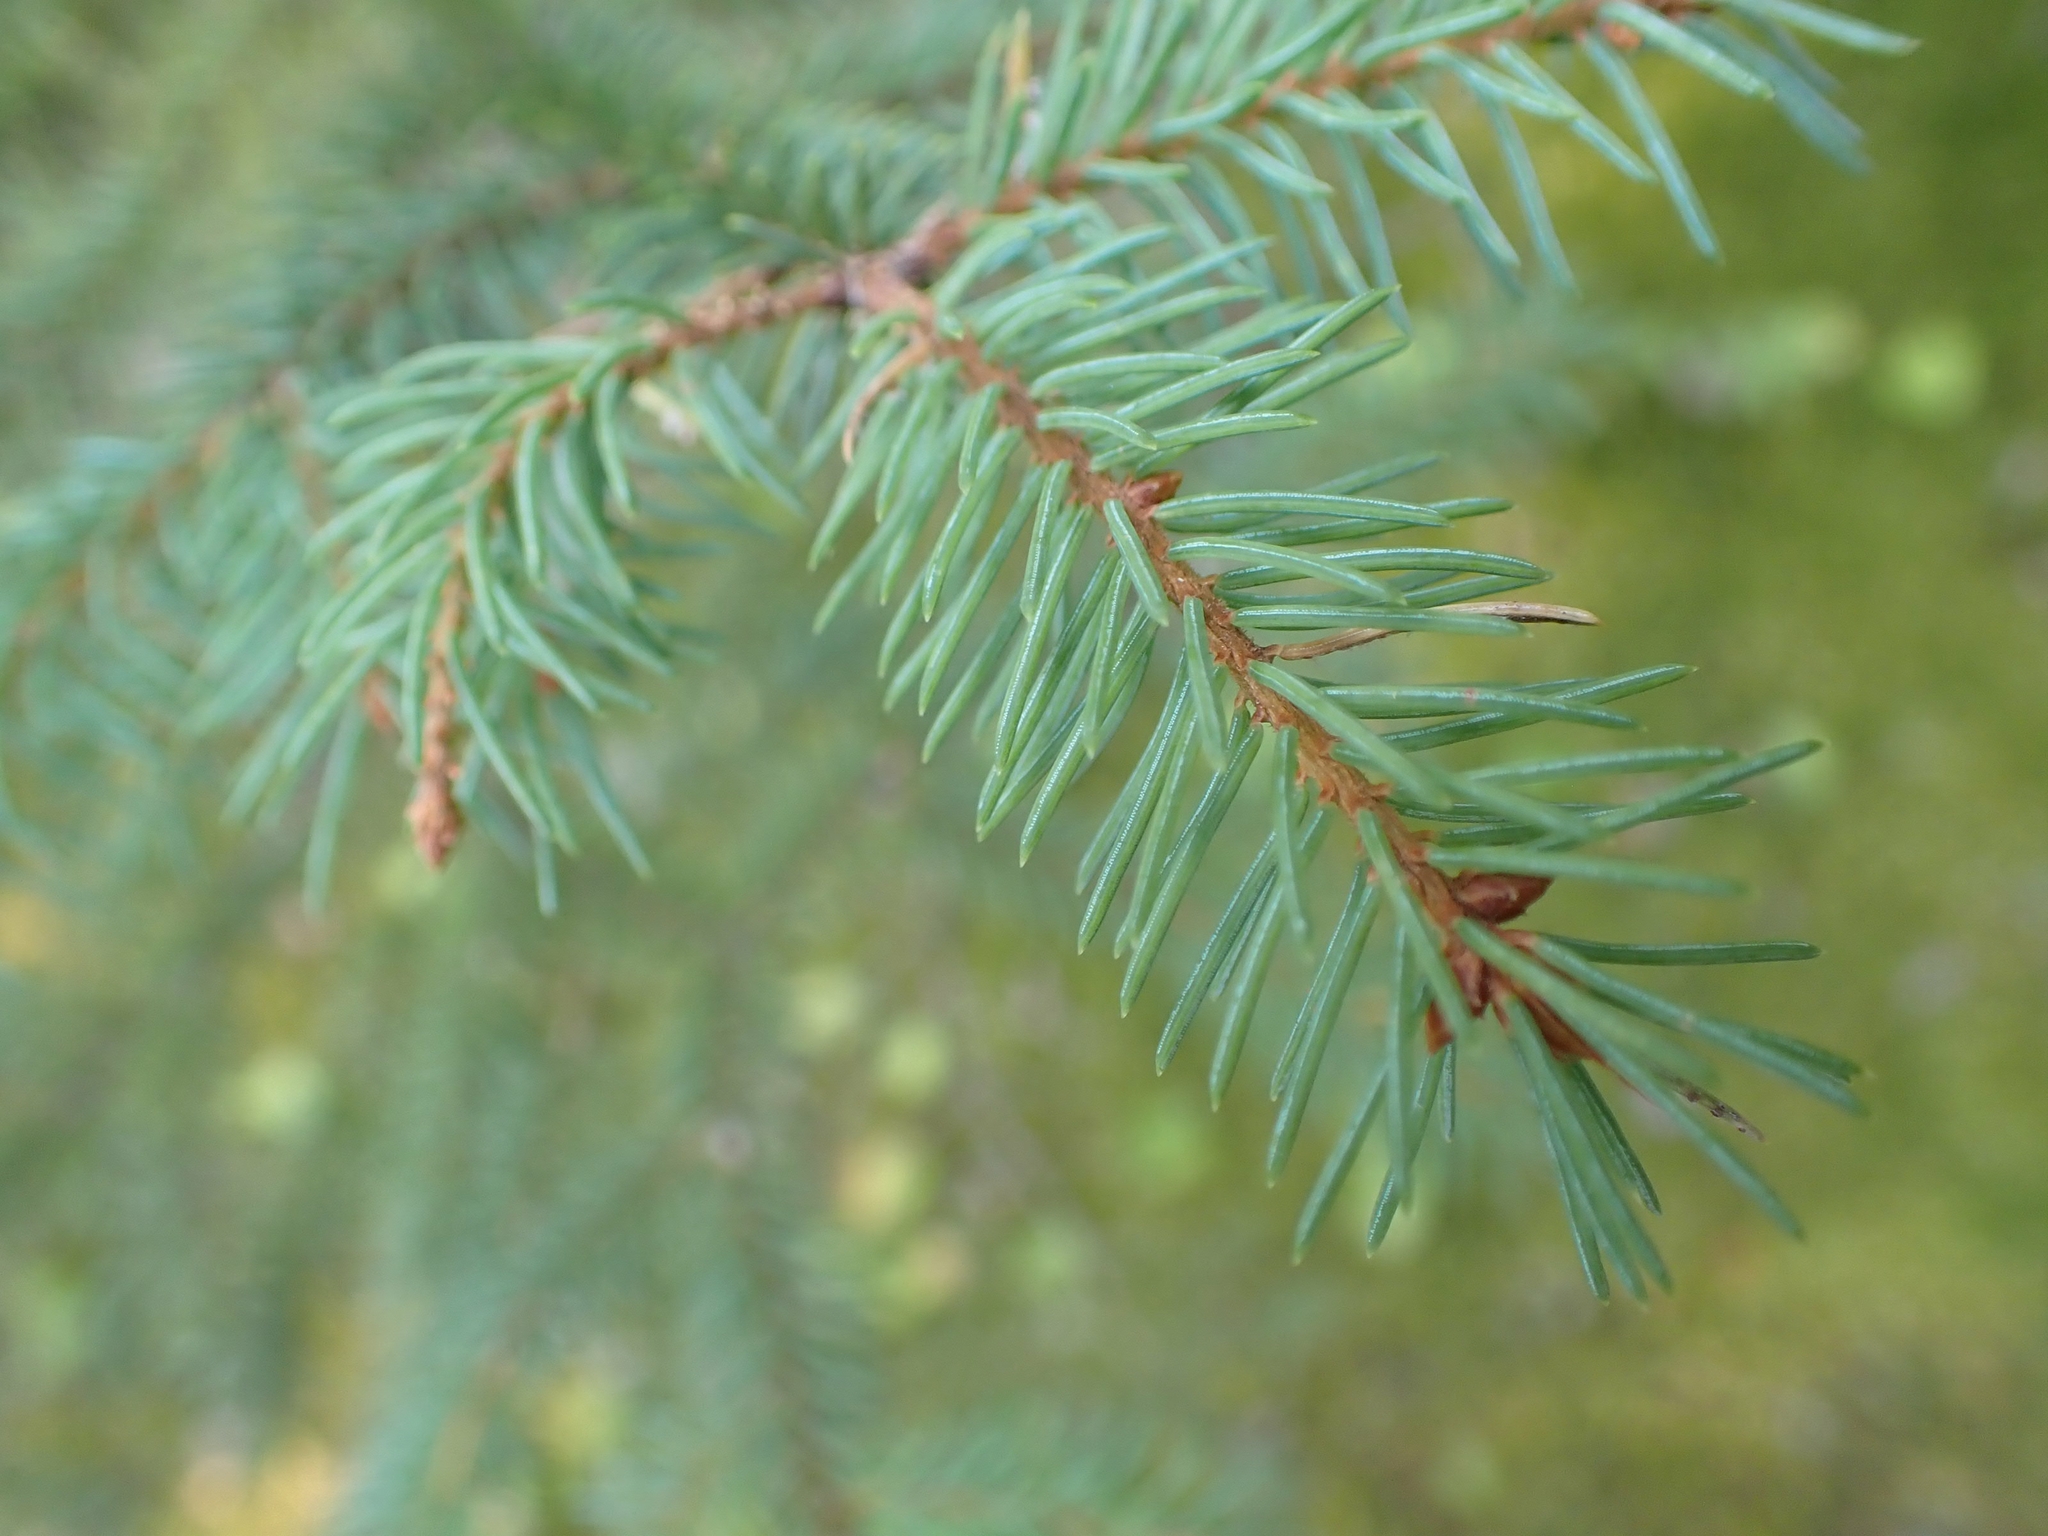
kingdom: Plantae
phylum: Tracheophyta
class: Pinopsida
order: Pinales
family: Pinaceae
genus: Picea
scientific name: Picea mariana
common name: Black spruce
